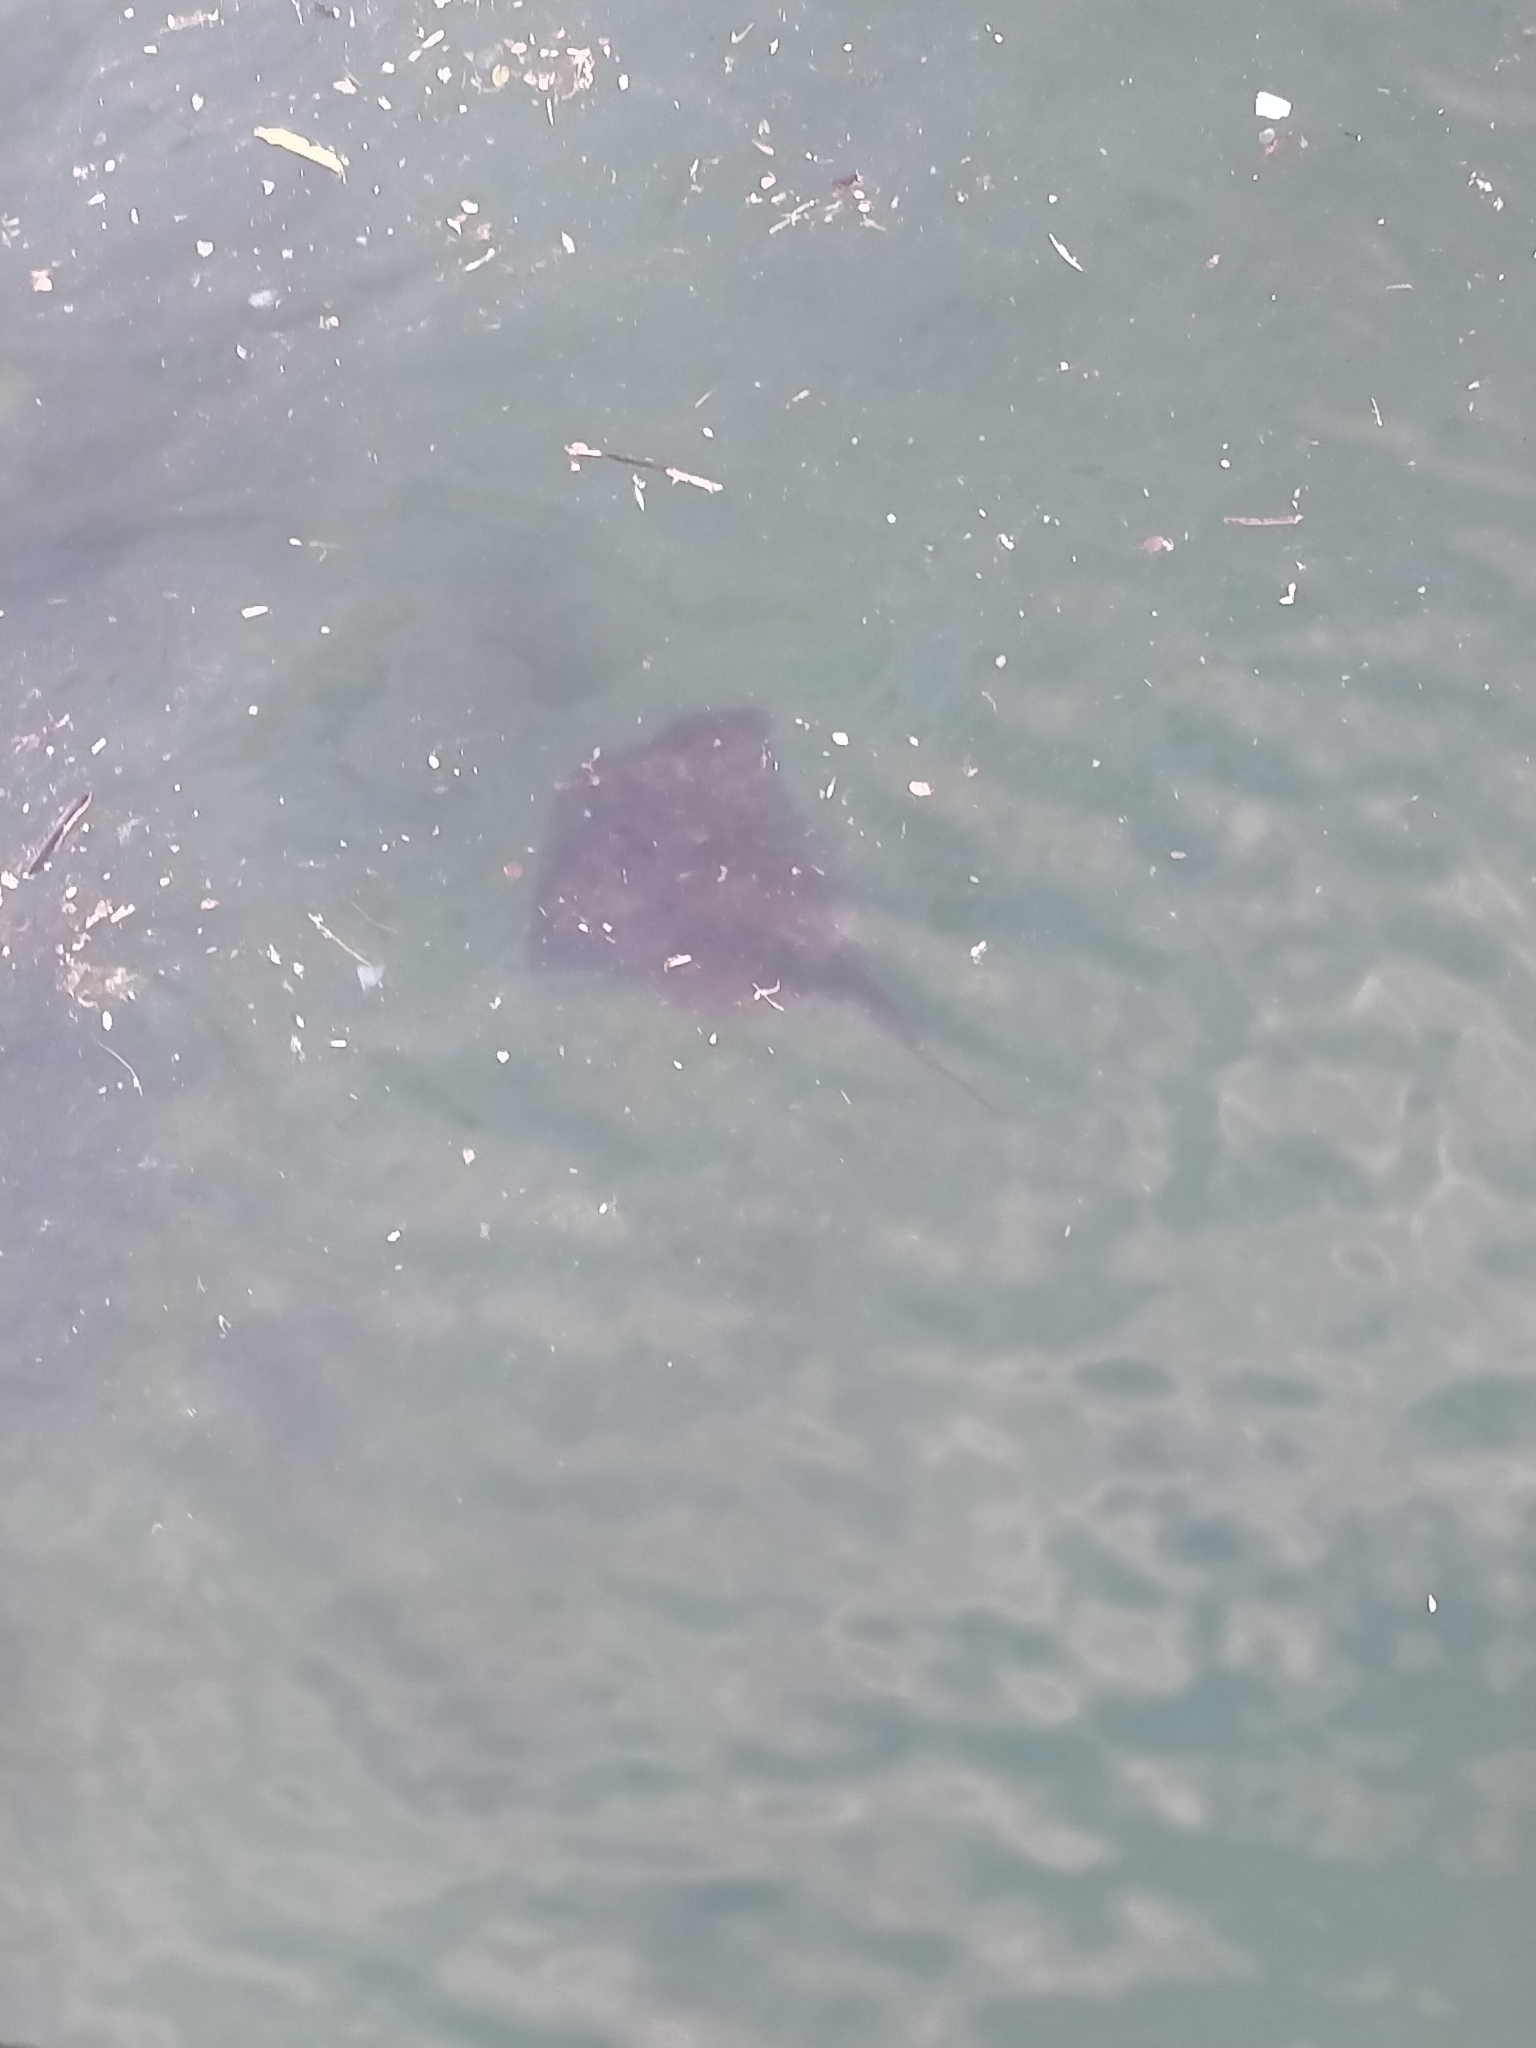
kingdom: Animalia
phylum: Chordata
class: Elasmobranchii
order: Myliobatiformes
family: Dasyatidae
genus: Bathytoshia
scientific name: Bathytoshia brevicaudata
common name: Short-tail stingray
